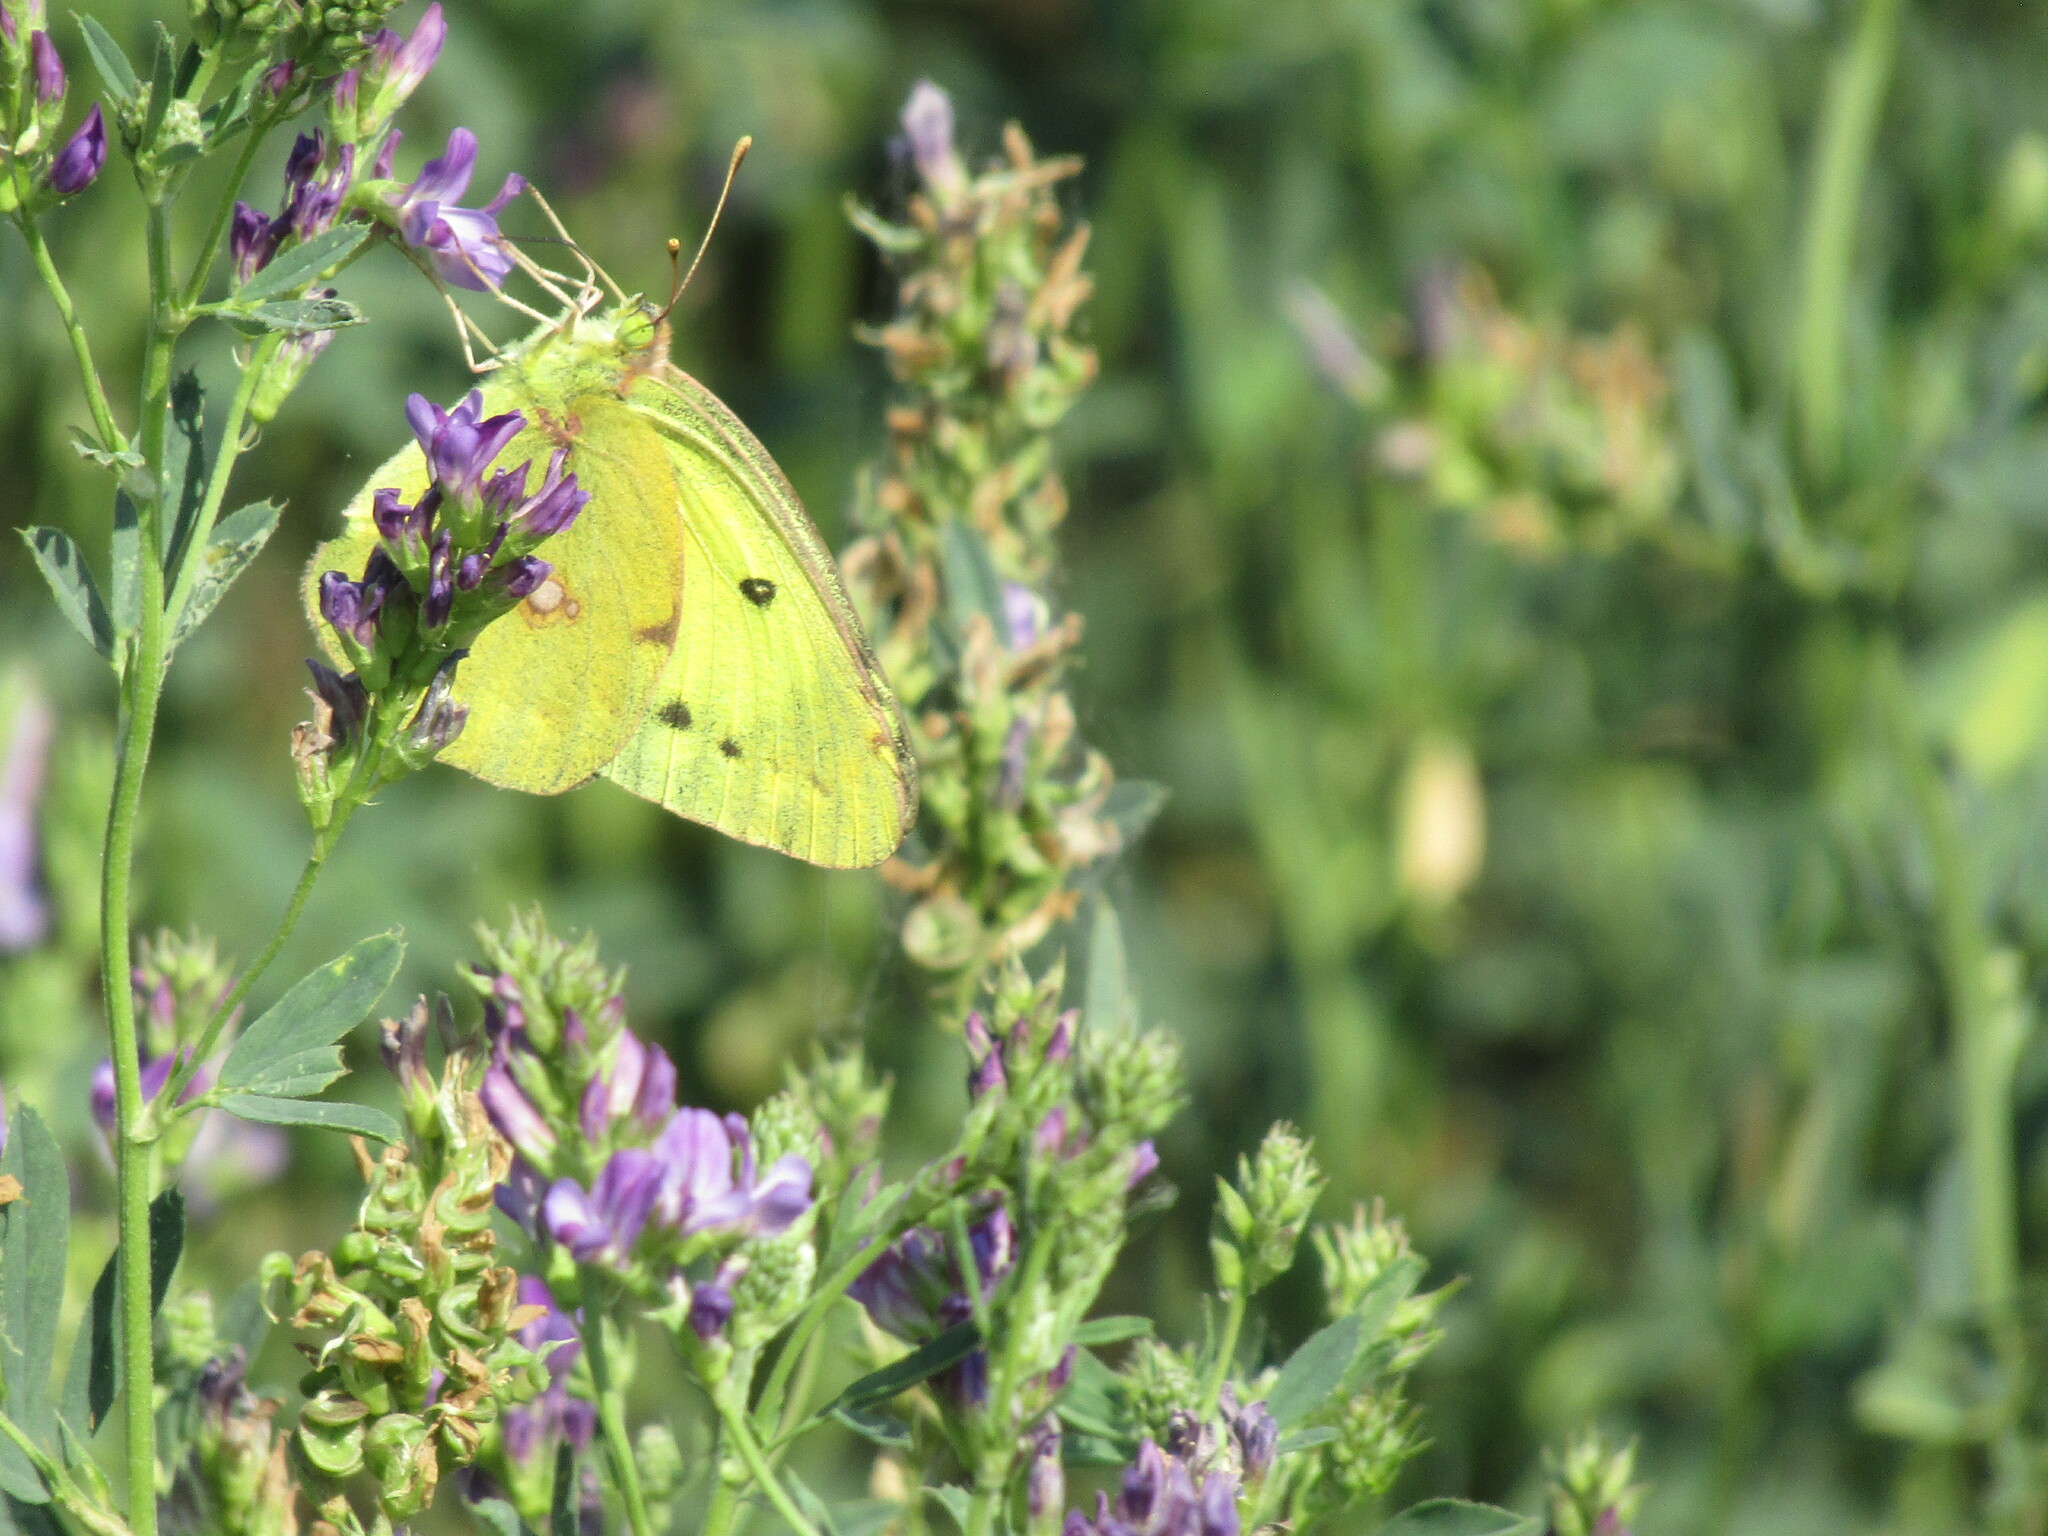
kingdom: Animalia
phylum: Arthropoda
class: Insecta
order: Lepidoptera
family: Pieridae
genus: Colias
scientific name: Colias erate
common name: Eastern pale clouded yellow
